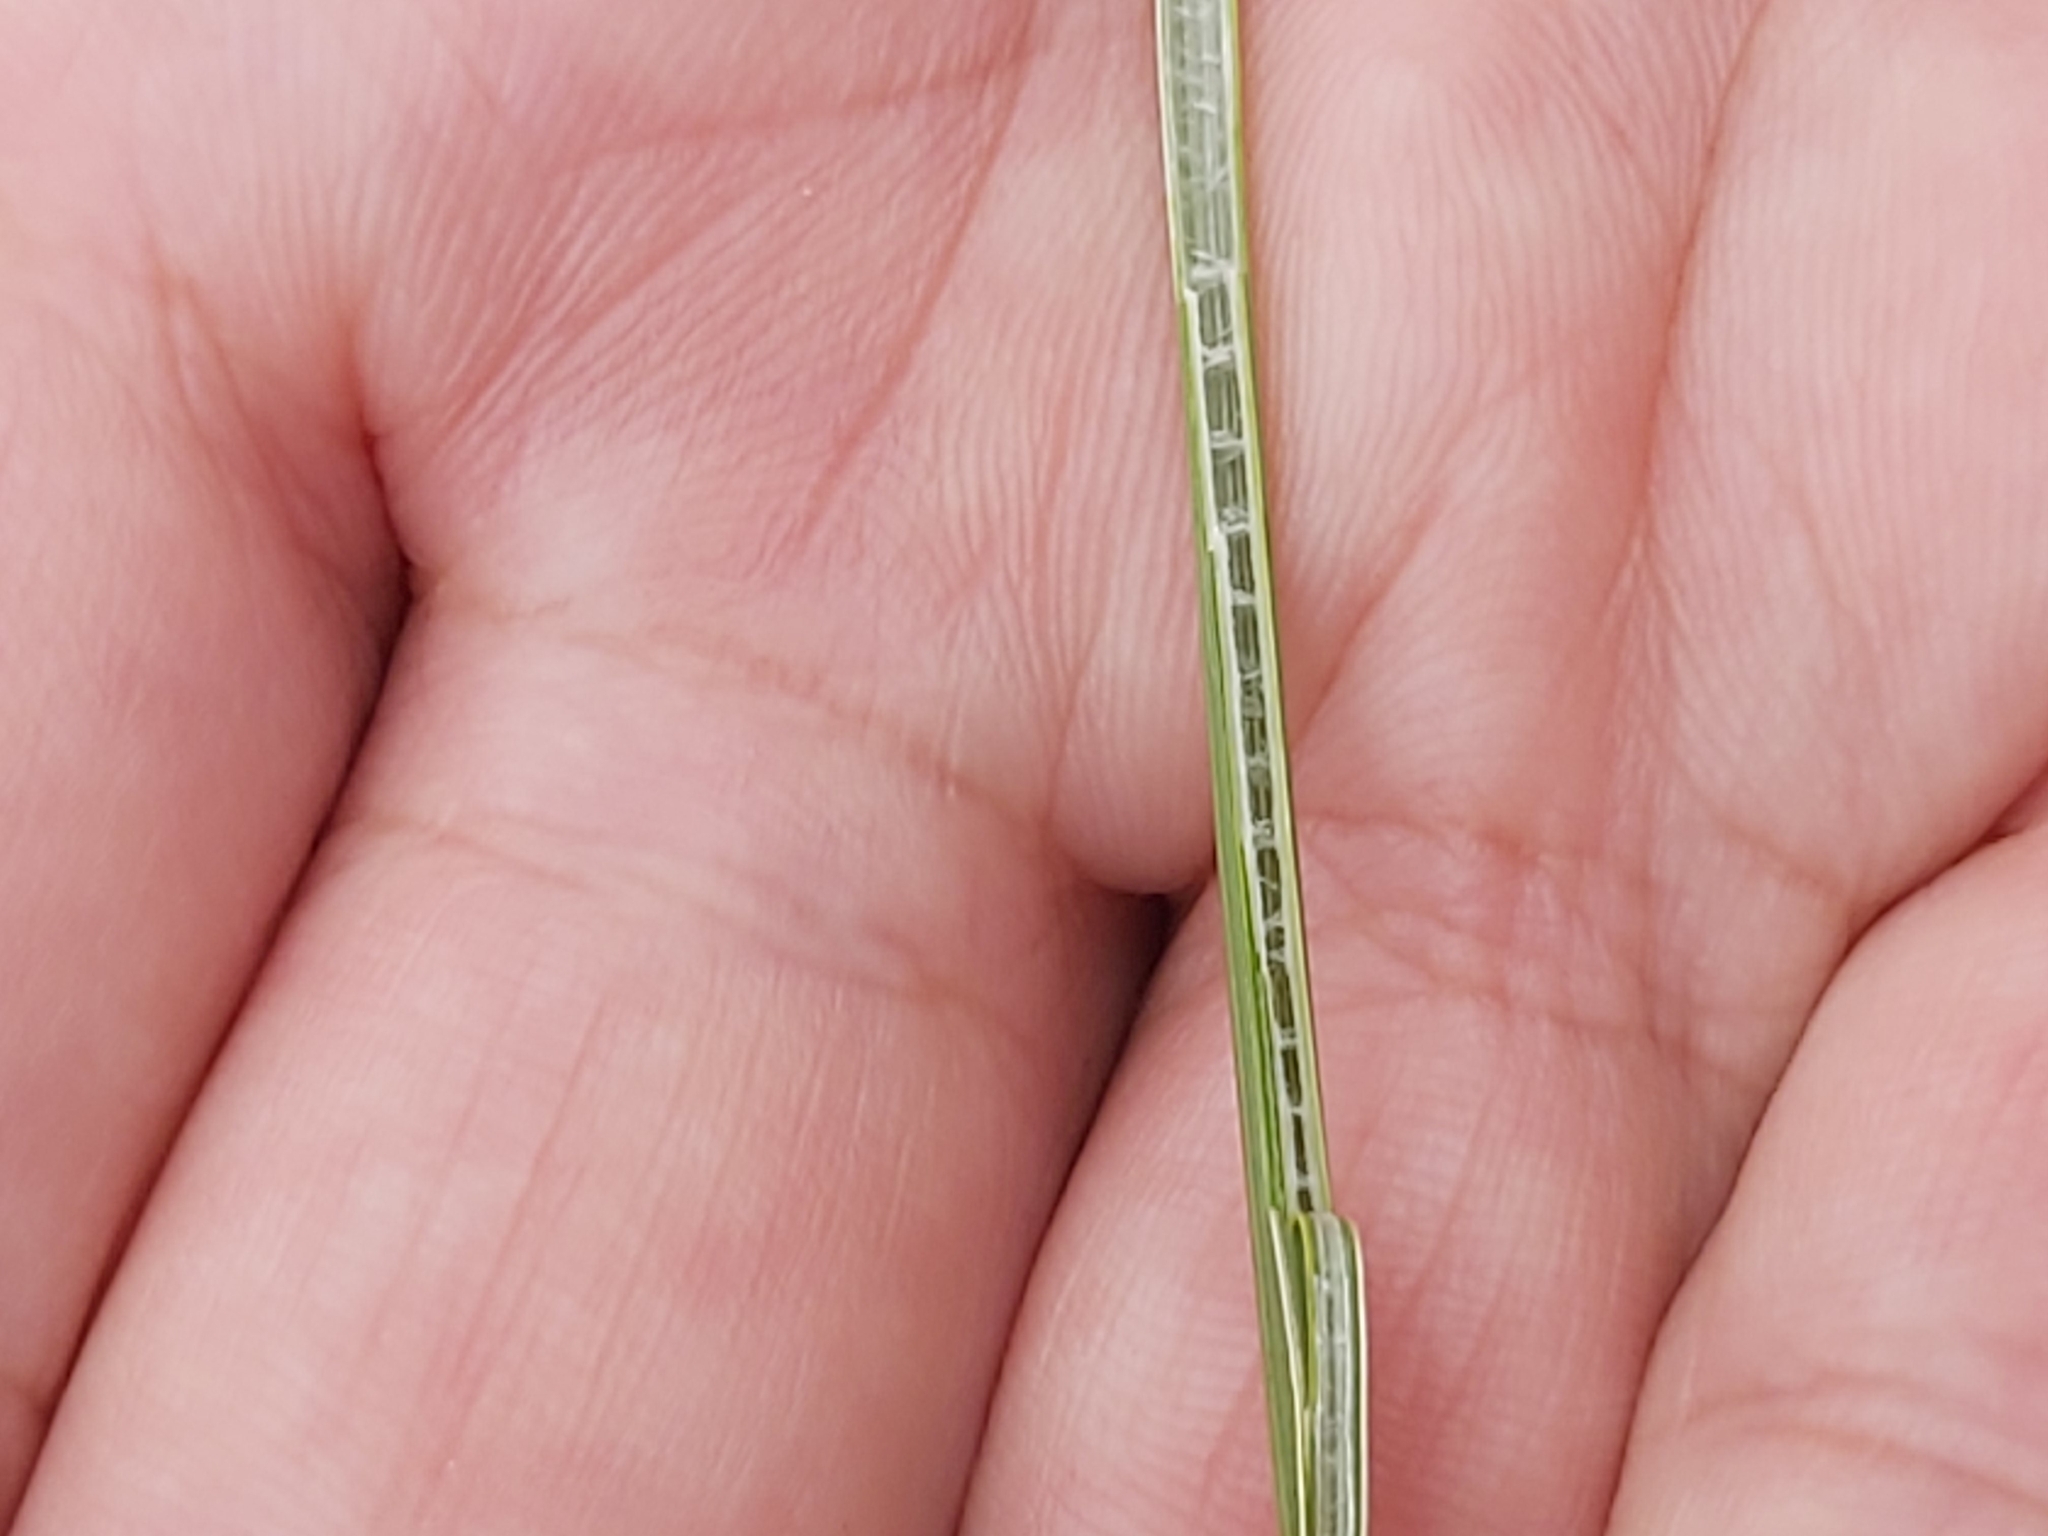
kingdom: Plantae
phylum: Tracheophyta
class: Liliopsida
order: Poales
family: Juncaceae
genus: Juncus
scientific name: Juncus inflexus
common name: Hard rush
